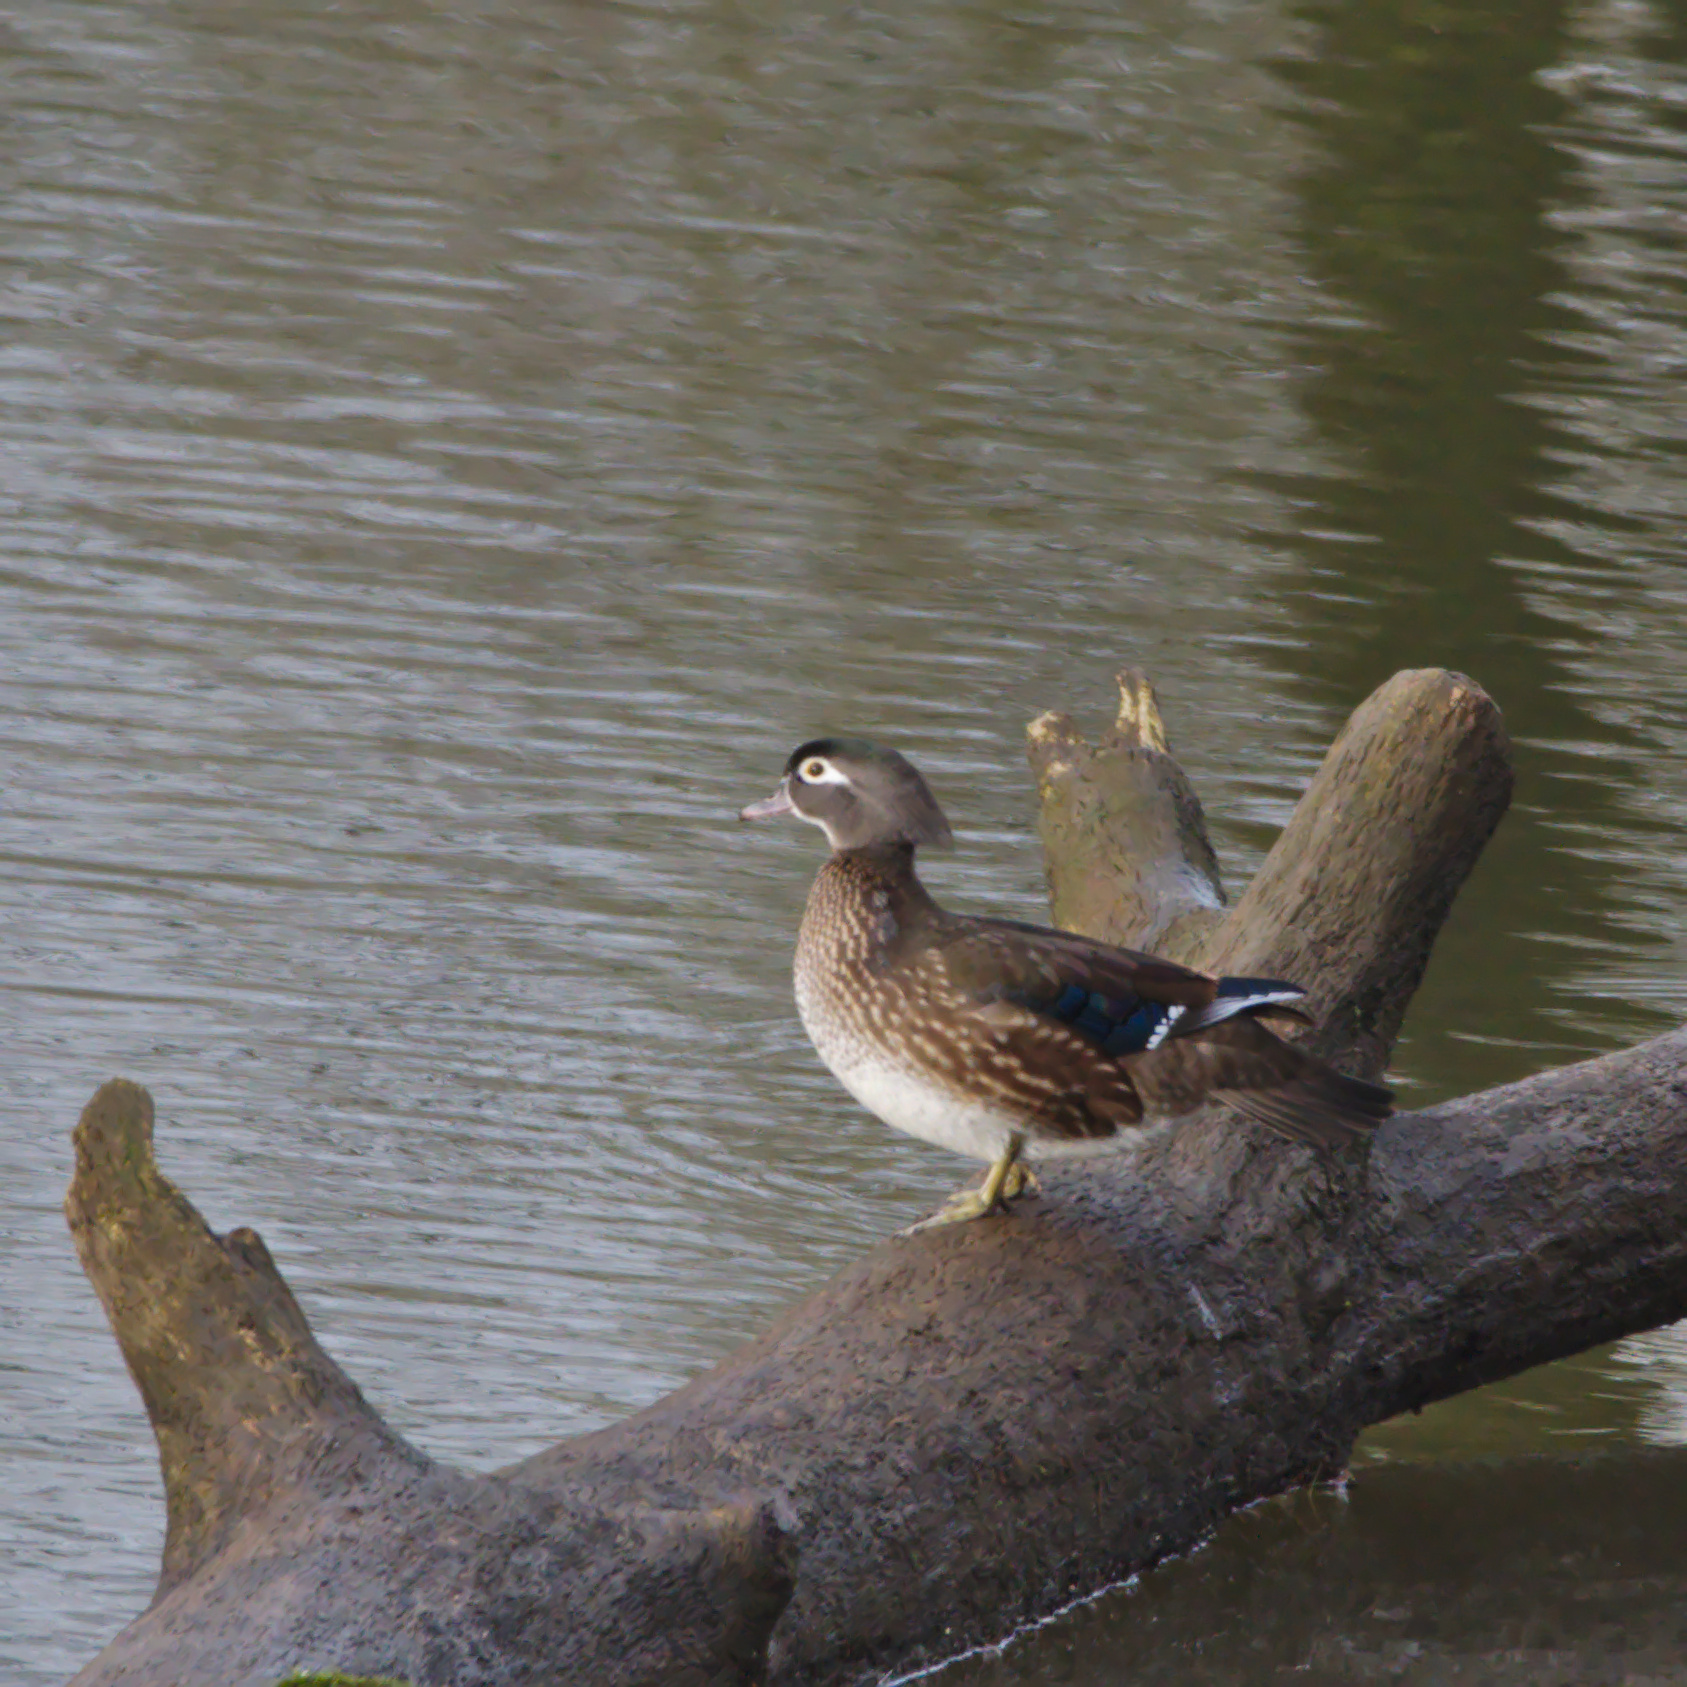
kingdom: Animalia
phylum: Chordata
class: Aves
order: Anseriformes
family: Anatidae
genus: Aix
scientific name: Aix sponsa
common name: Wood duck
